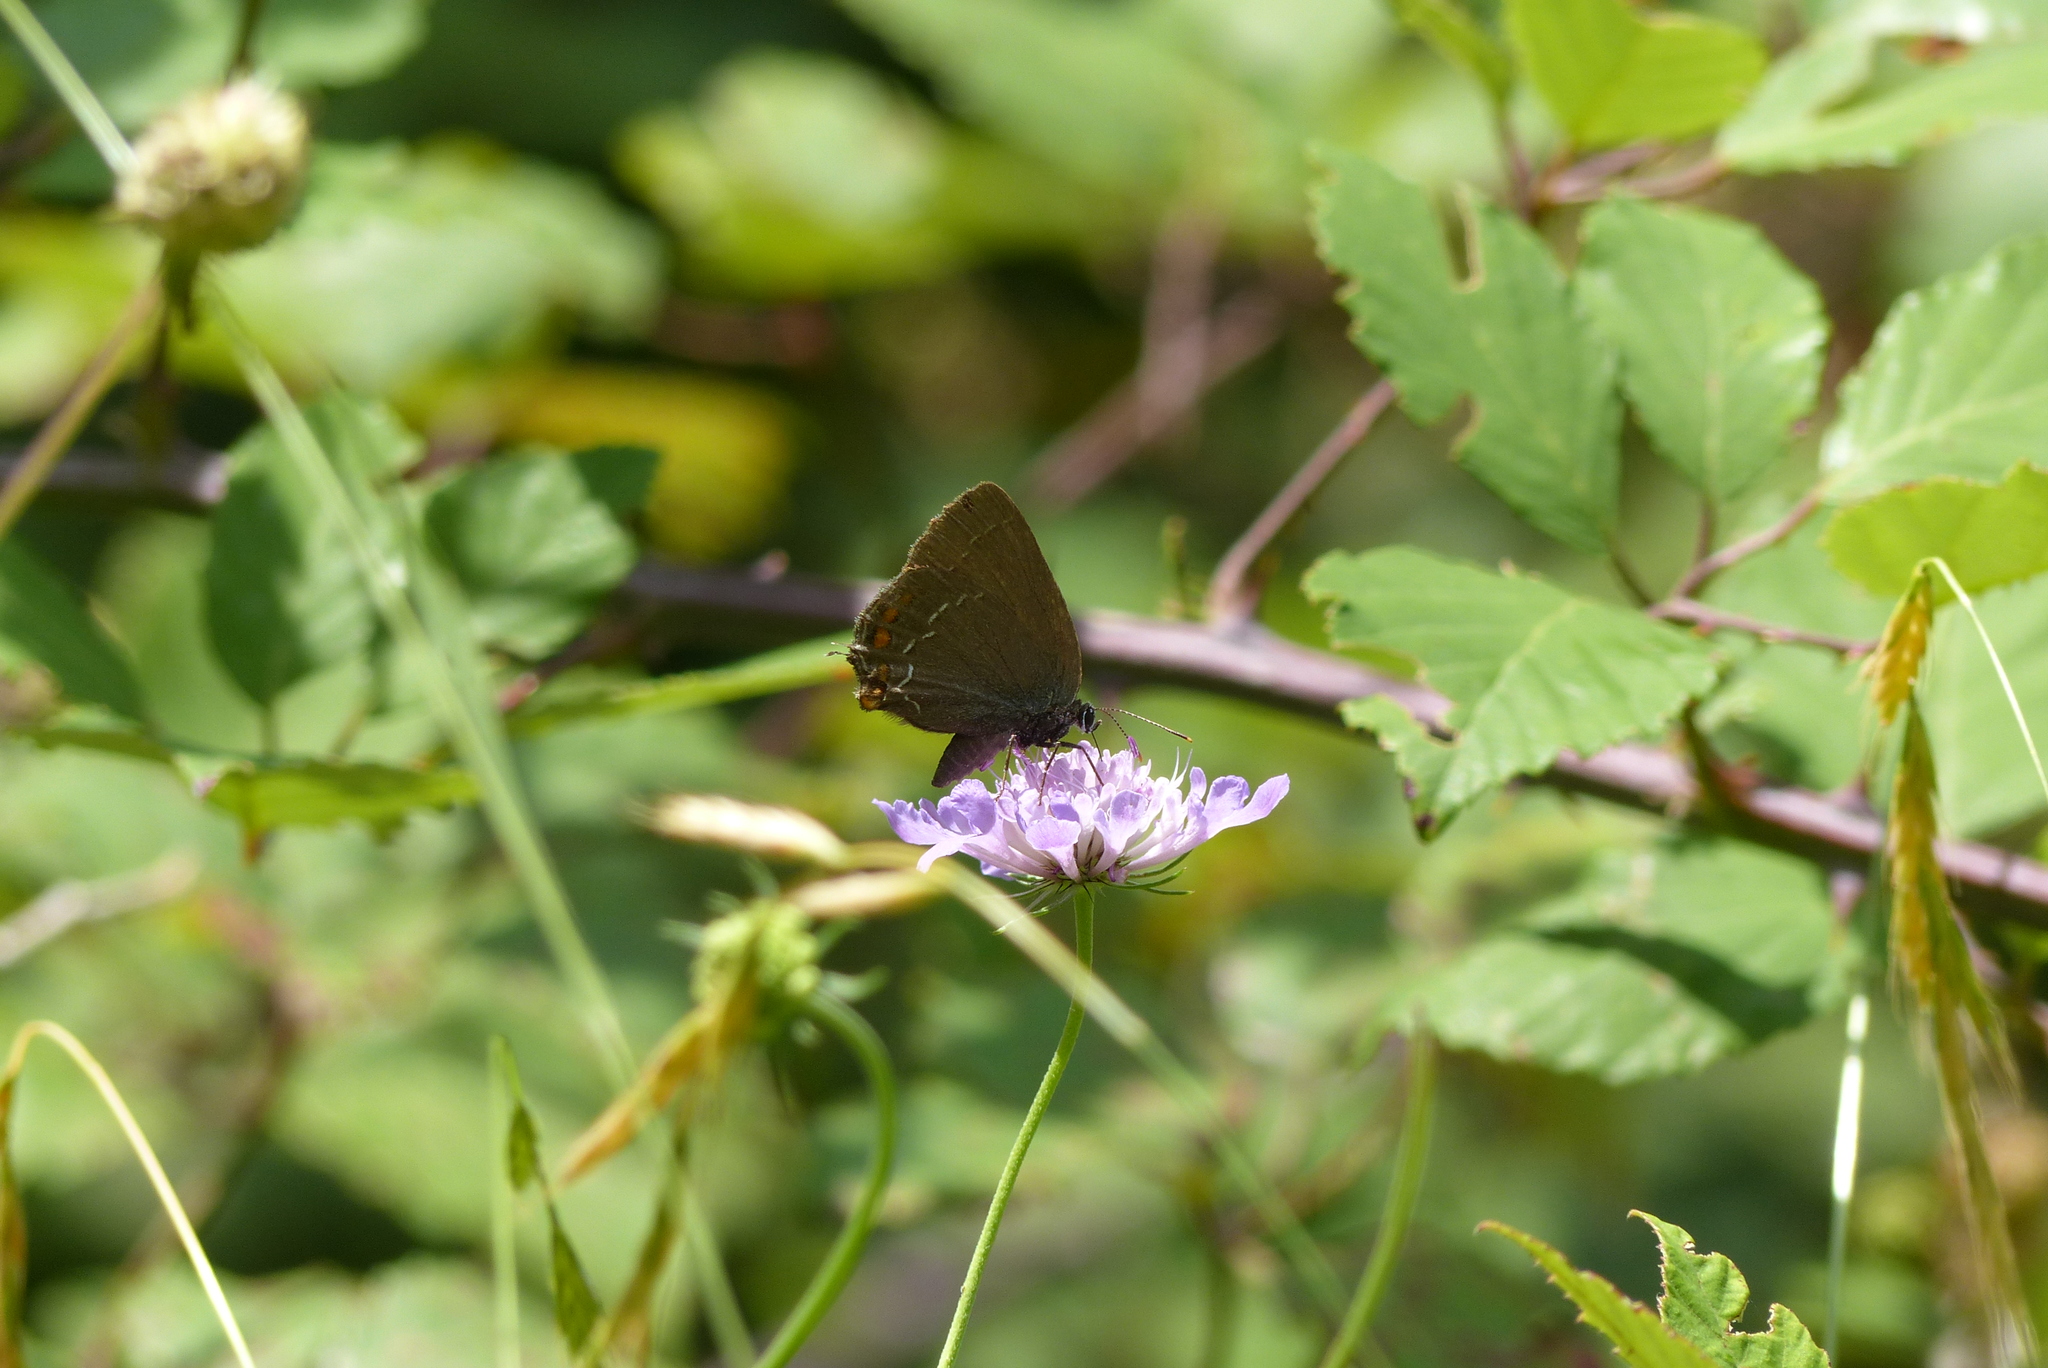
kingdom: Animalia
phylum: Arthropoda
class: Insecta
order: Lepidoptera
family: Lycaenidae
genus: Nordmannia
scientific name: Nordmannia ilicis
